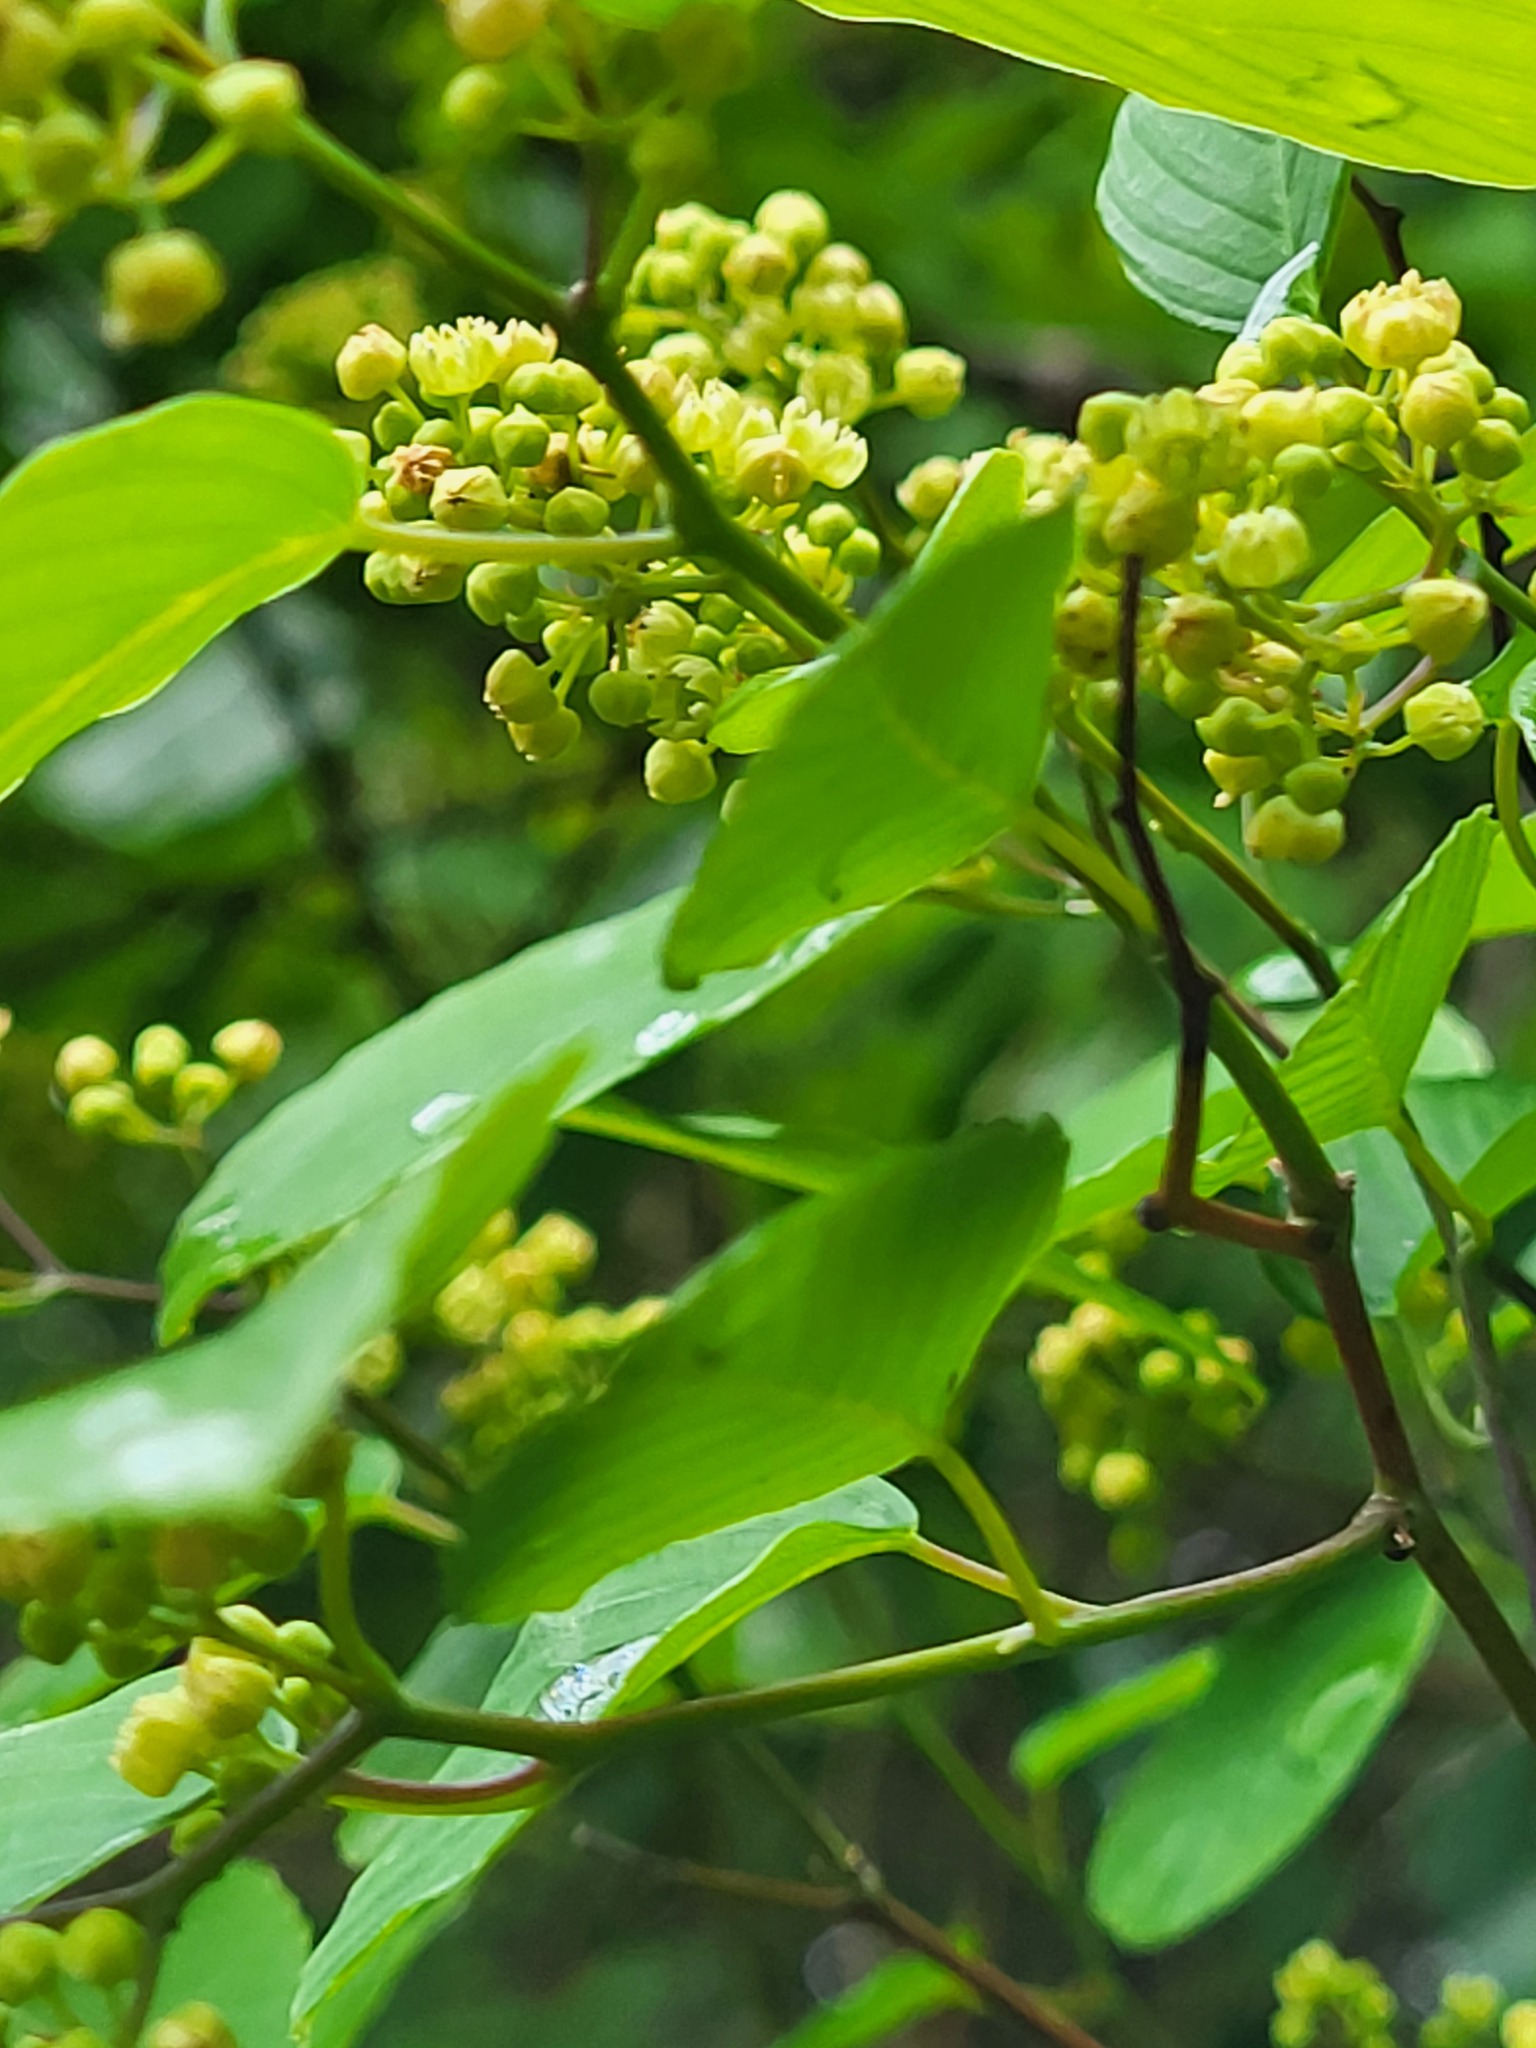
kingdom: Plantae
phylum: Tracheophyta
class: Magnoliopsida
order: Rosales
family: Rhamnaceae
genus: Berchemia
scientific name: Berchemia scandens
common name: Supplejack
